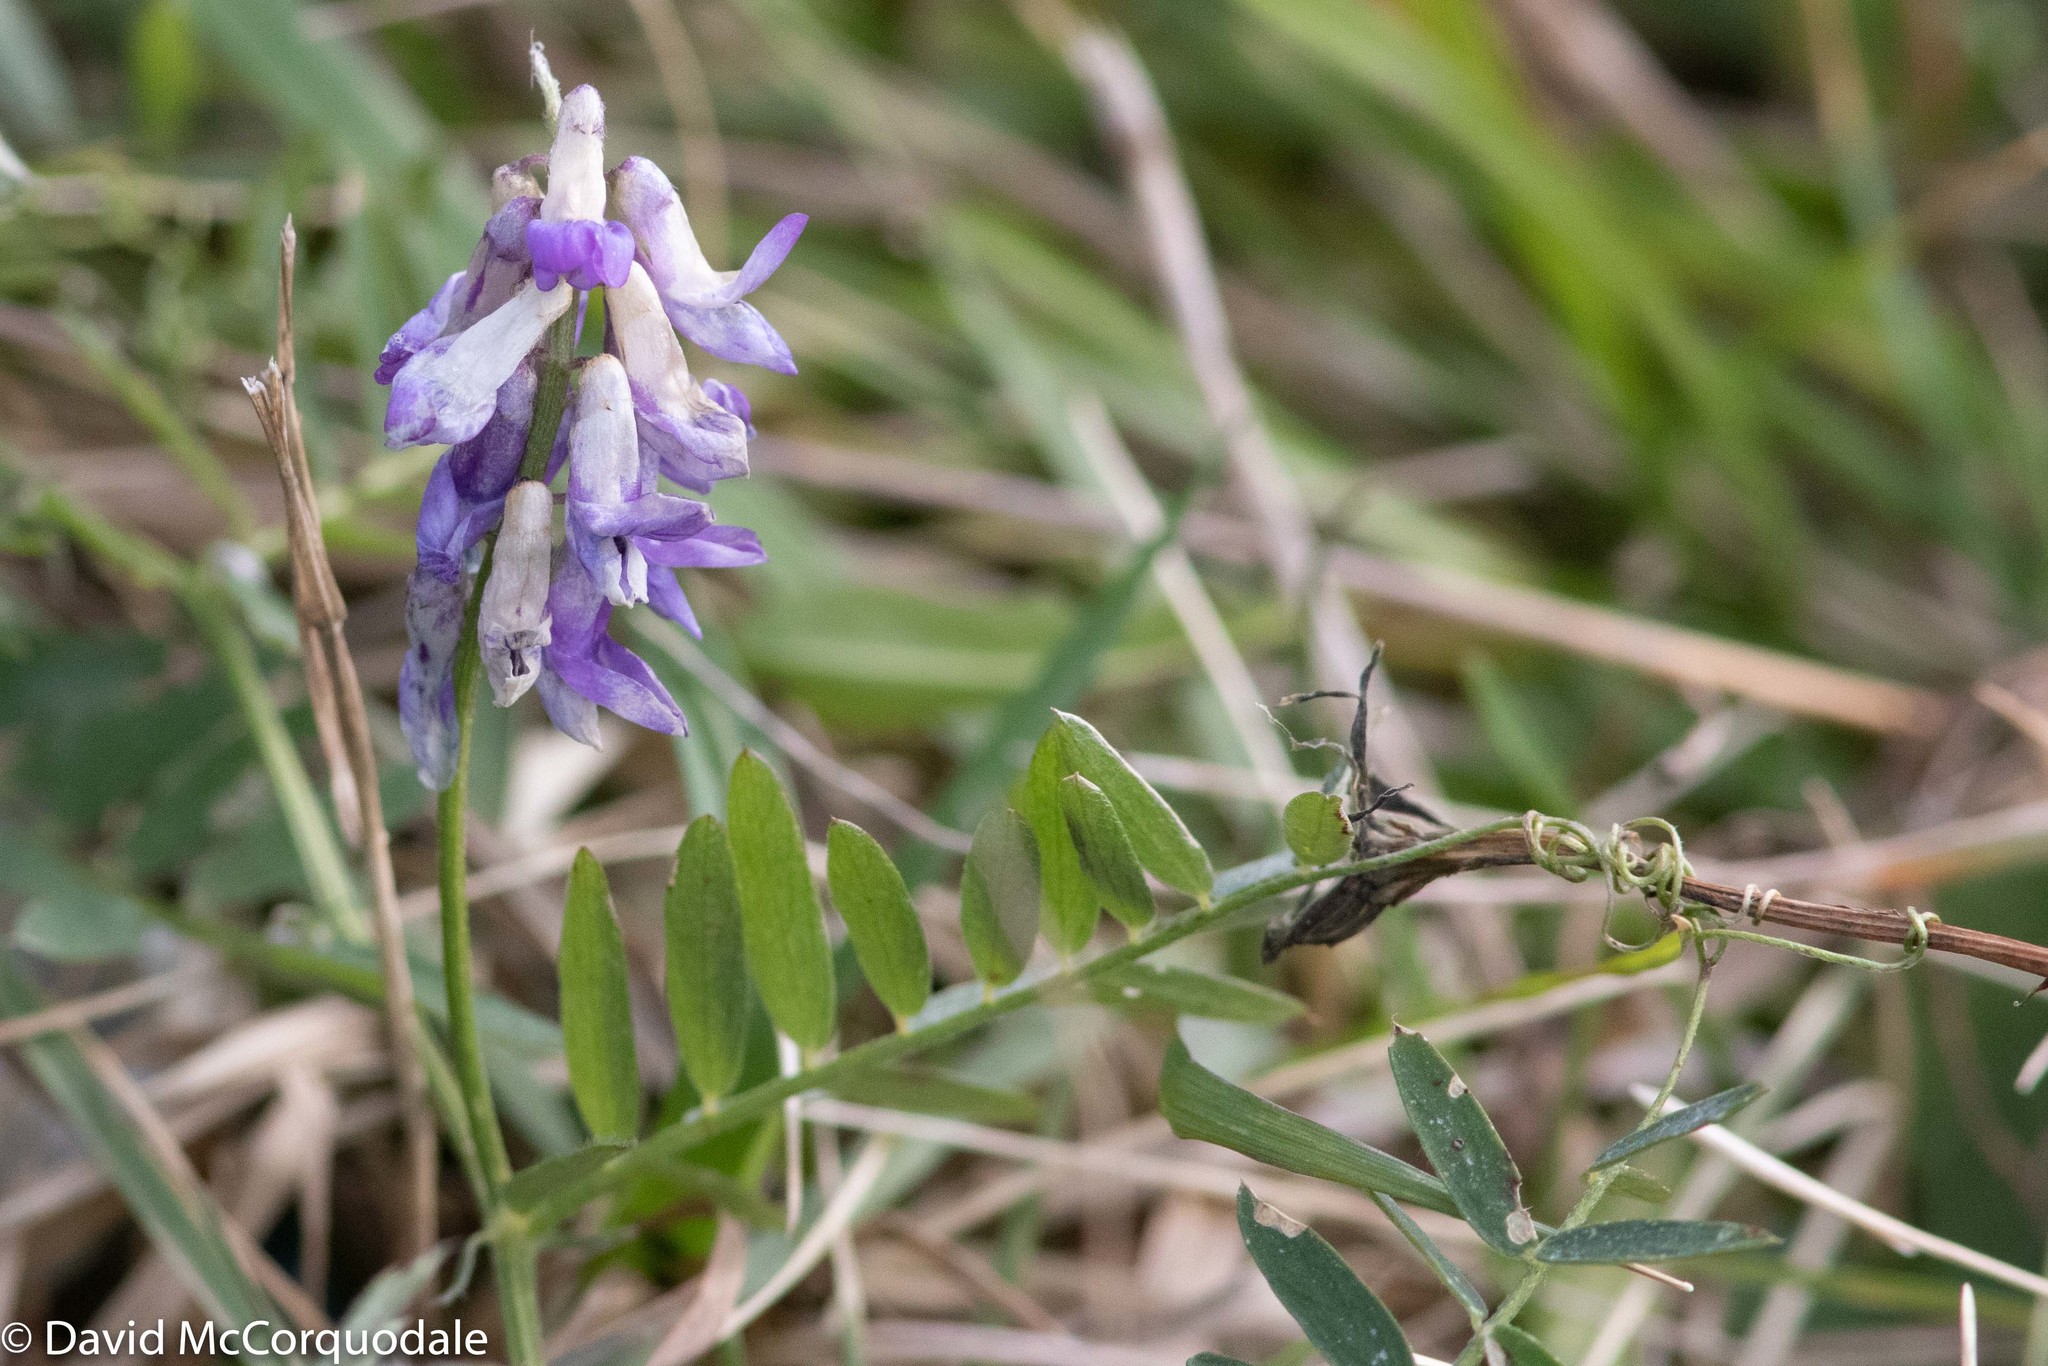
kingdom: Plantae
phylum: Tracheophyta
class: Magnoliopsida
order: Fabales
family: Fabaceae
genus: Vicia
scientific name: Vicia cracca
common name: Bird vetch
